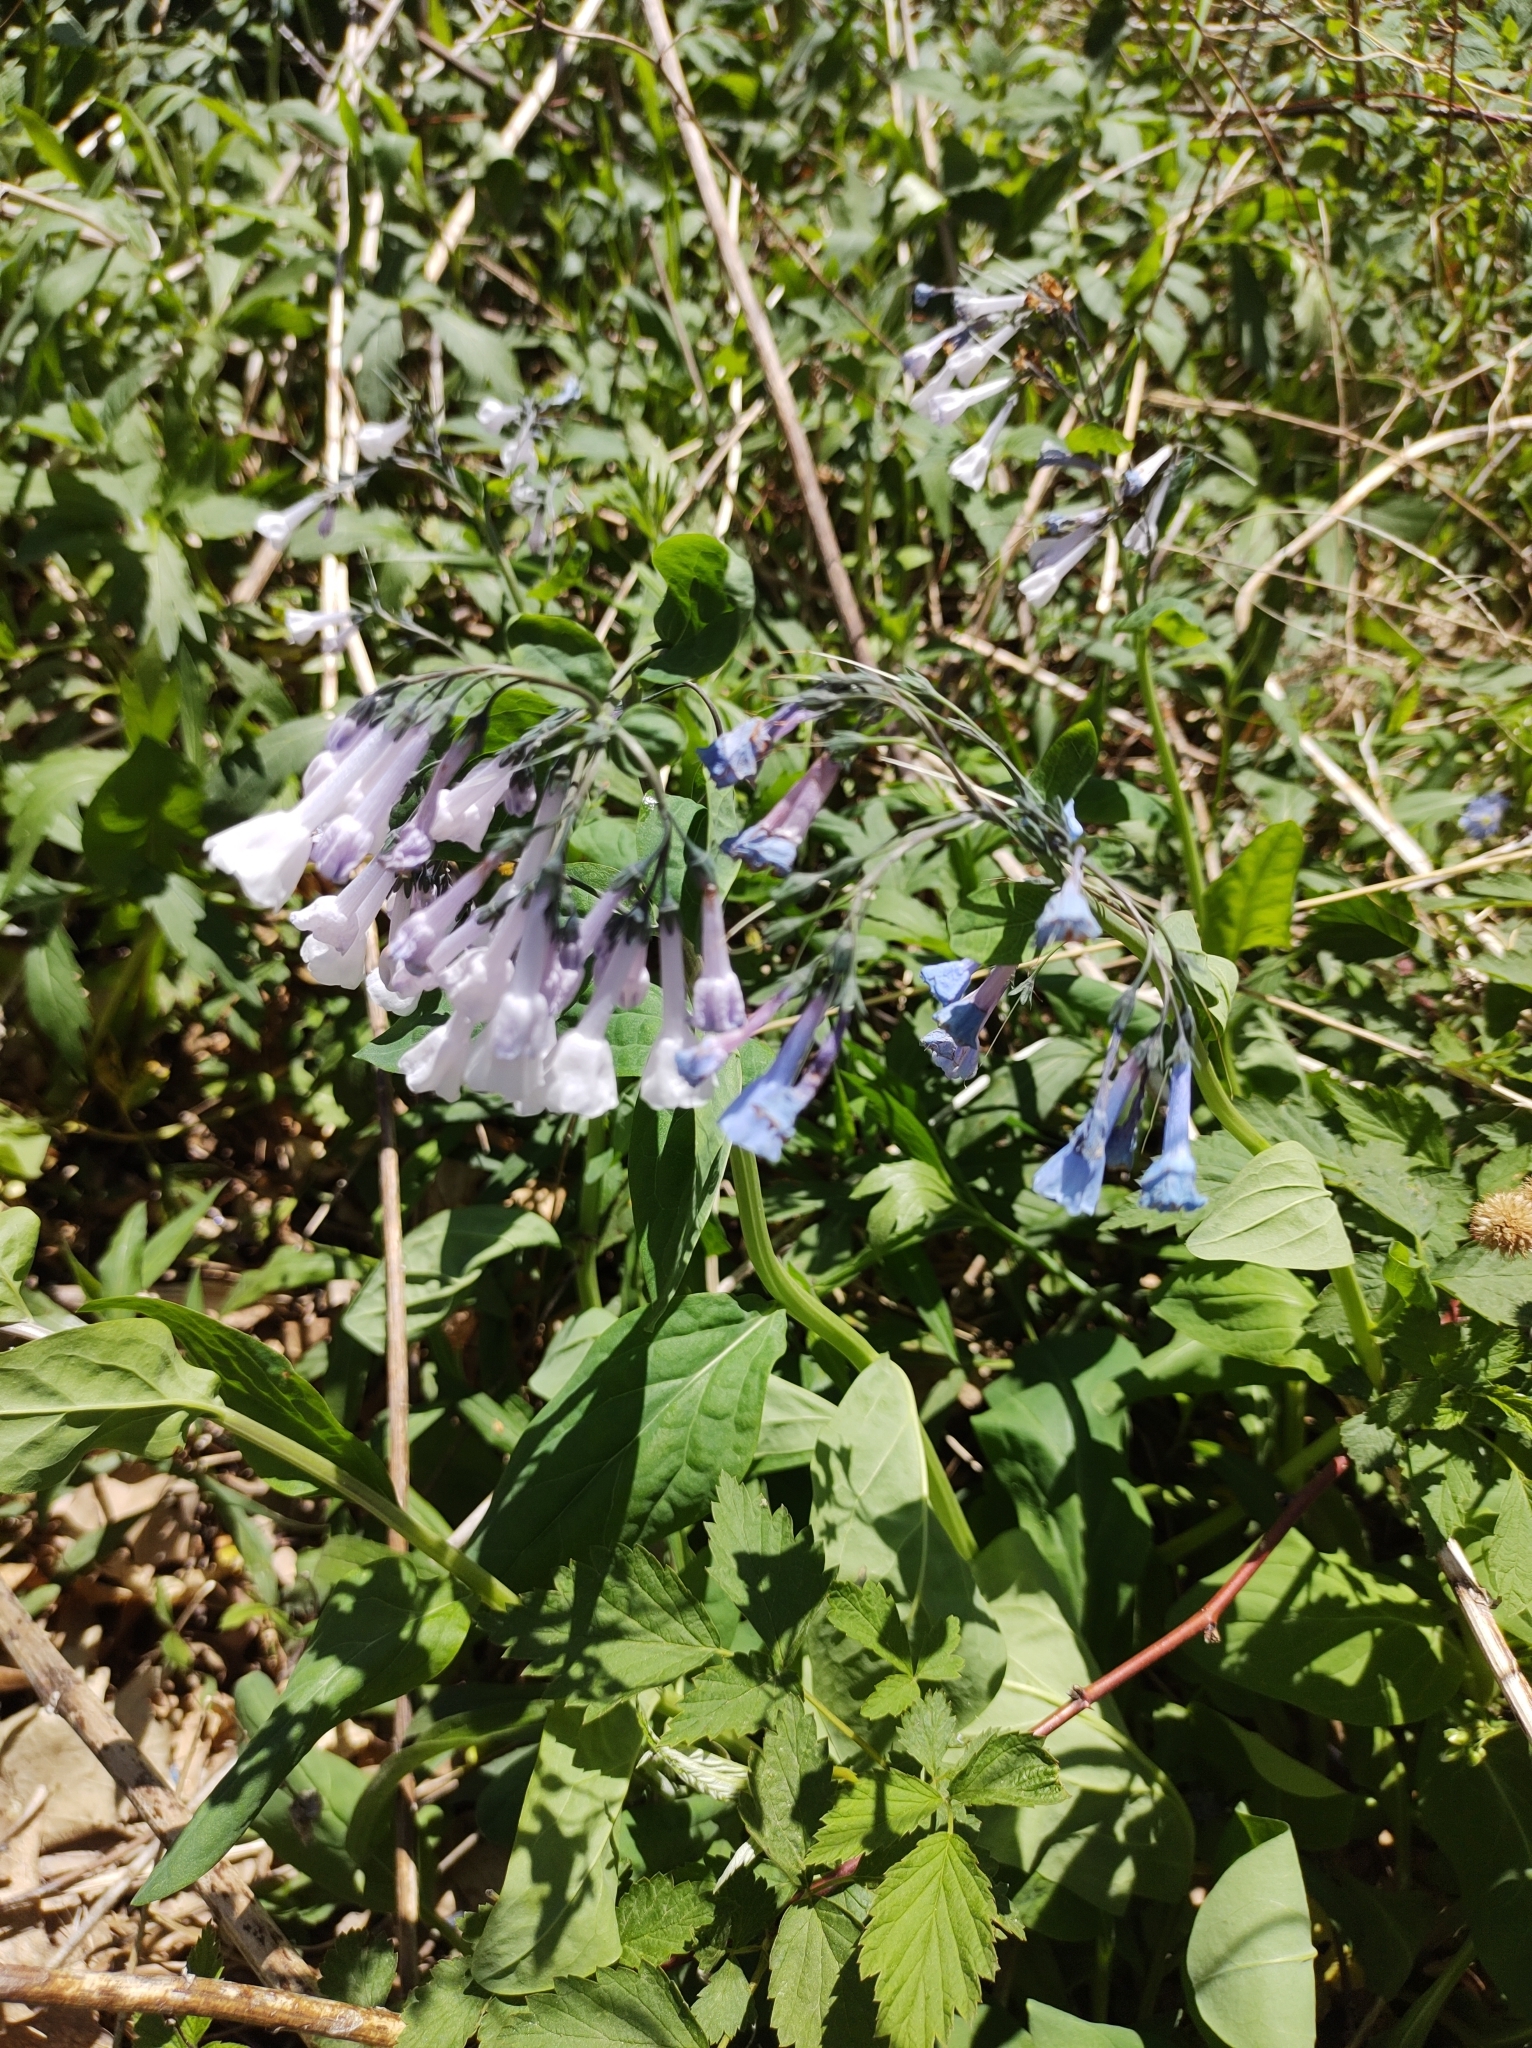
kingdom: Plantae
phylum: Tracheophyta
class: Magnoliopsida
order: Boraginales
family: Boraginaceae
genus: Mertensia
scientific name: Mertensia virginica
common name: Virginia bluebells
